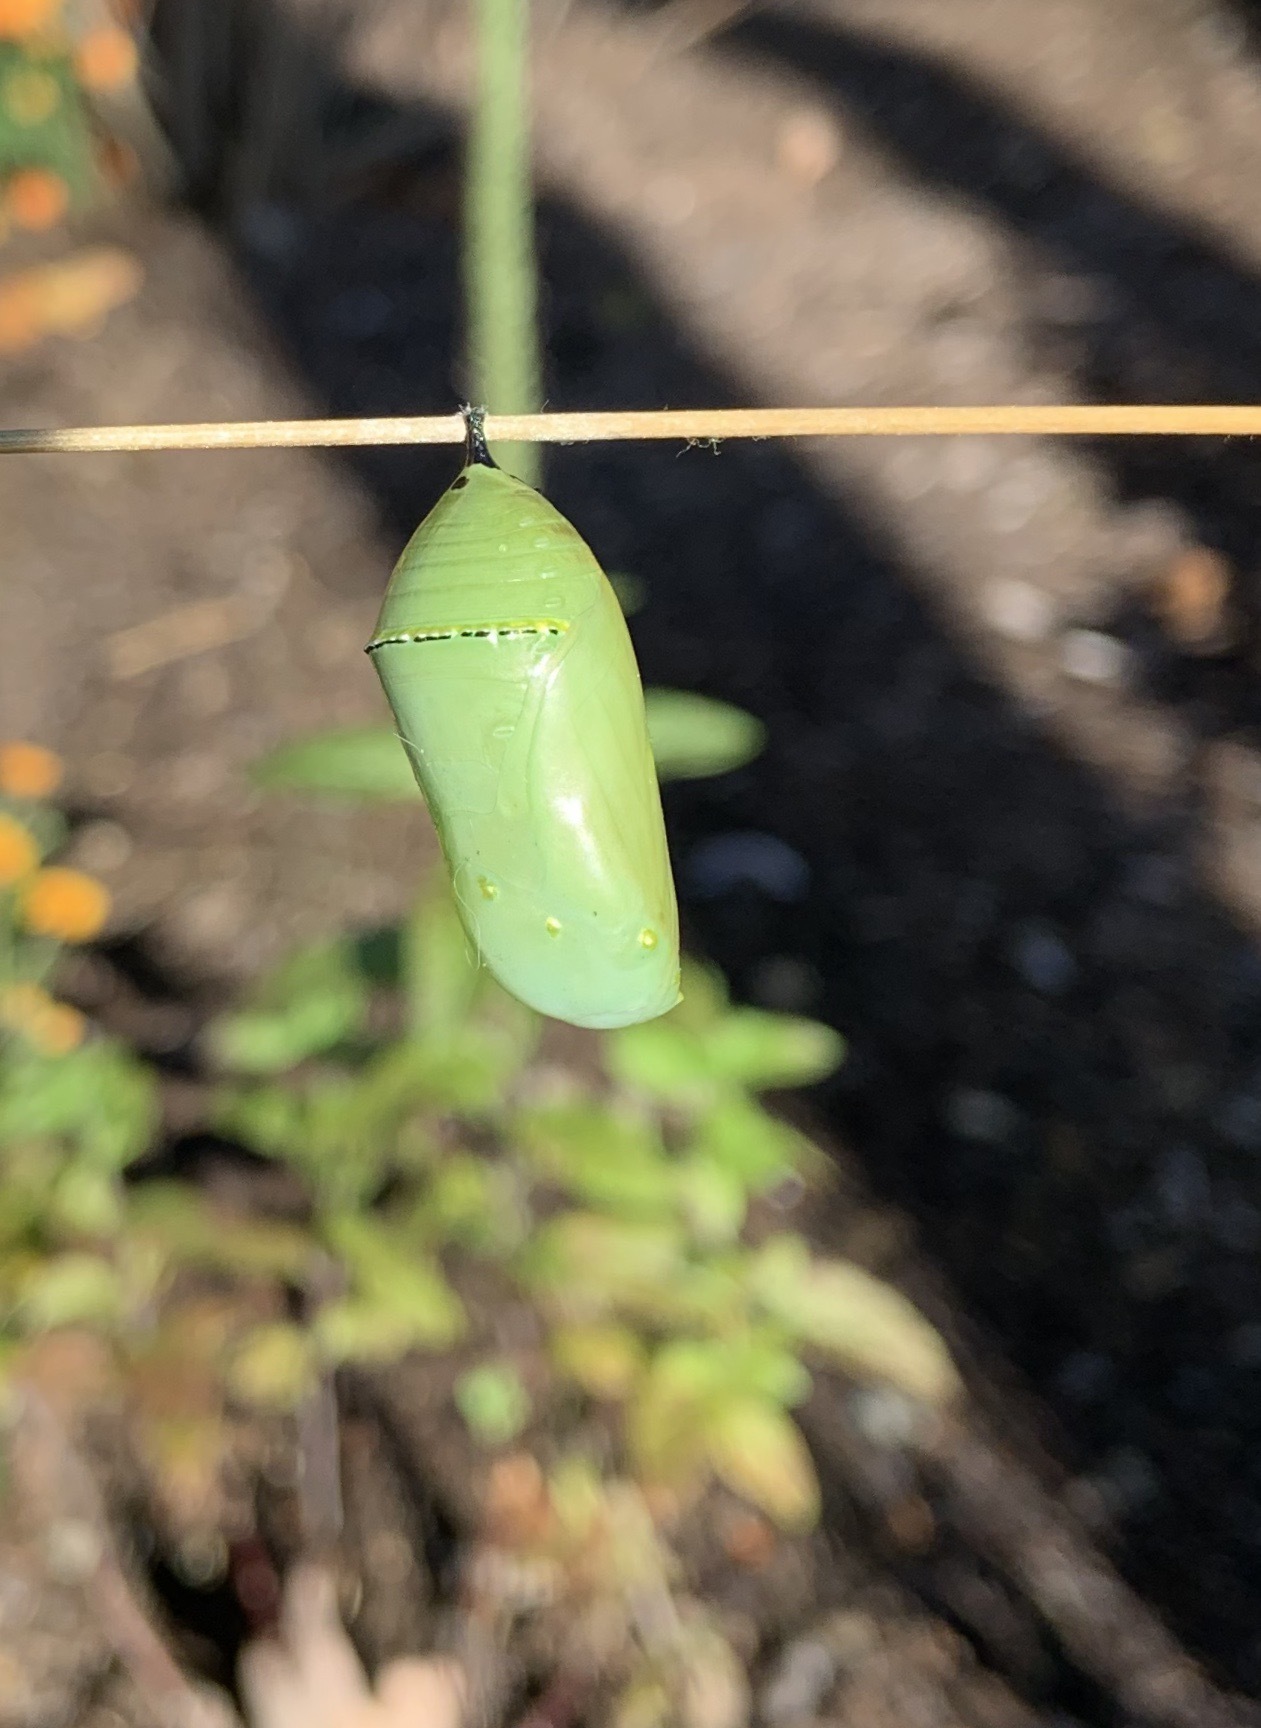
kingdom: Animalia
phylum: Arthropoda
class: Insecta
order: Lepidoptera
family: Nymphalidae
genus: Danaus
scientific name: Danaus plexippus
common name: Monarch
